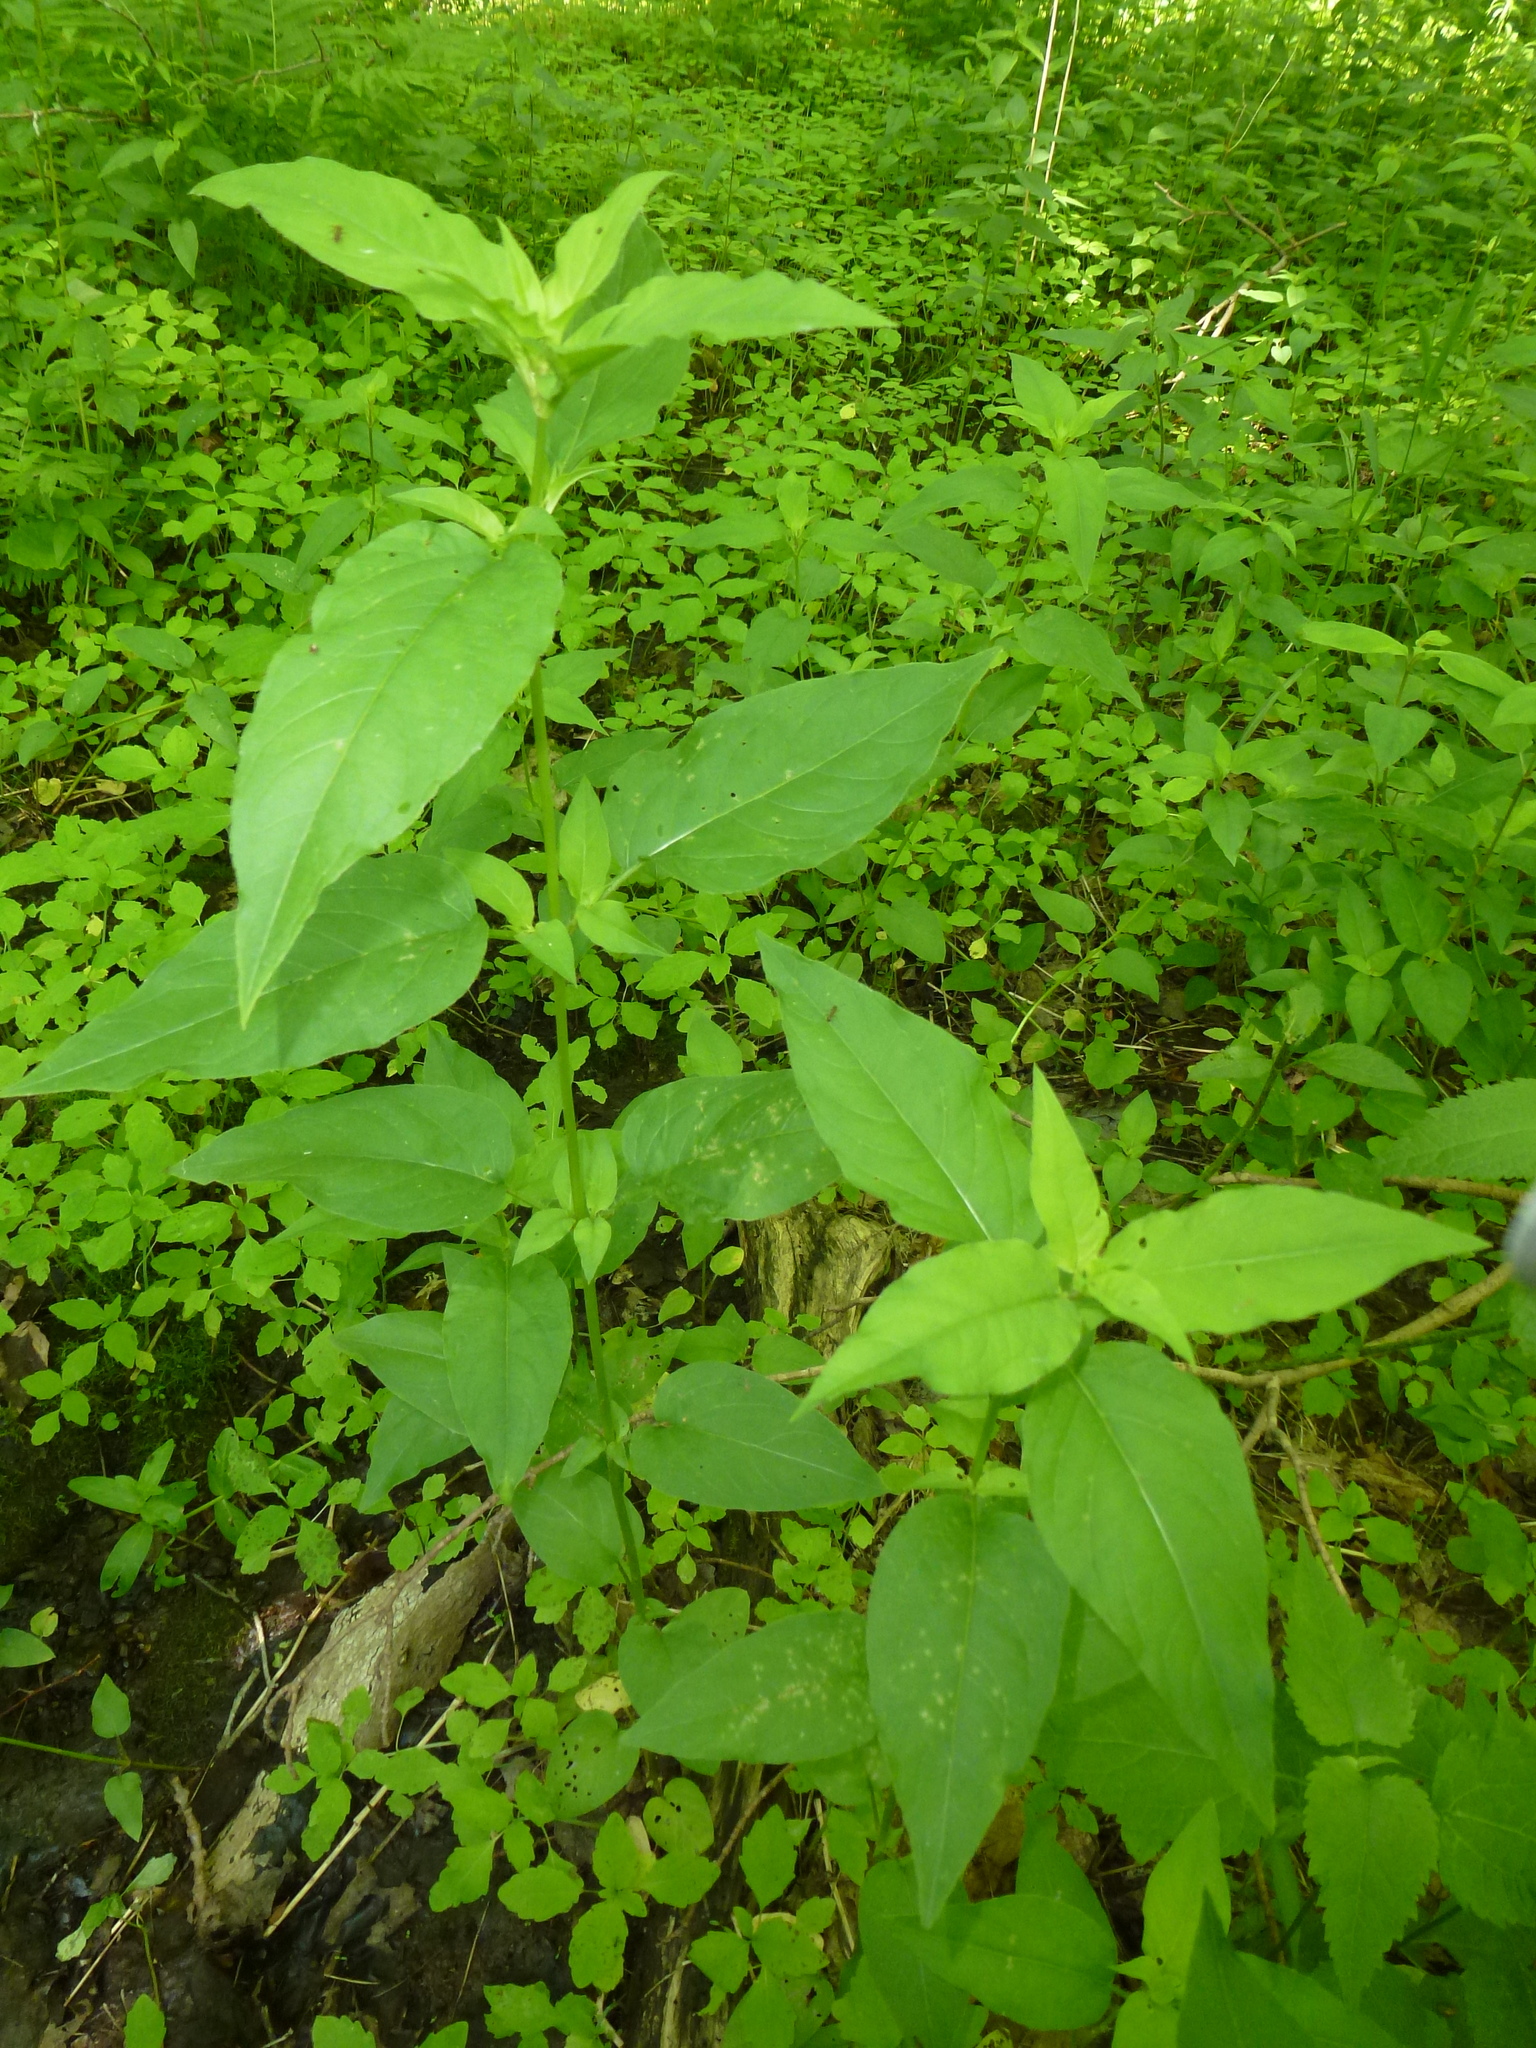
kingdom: Plantae
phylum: Tracheophyta
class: Magnoliopsida
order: Ericales
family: Primulaceae
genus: Lysimachia
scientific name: Lysimachia ciliata
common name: Fringed loosestrife
